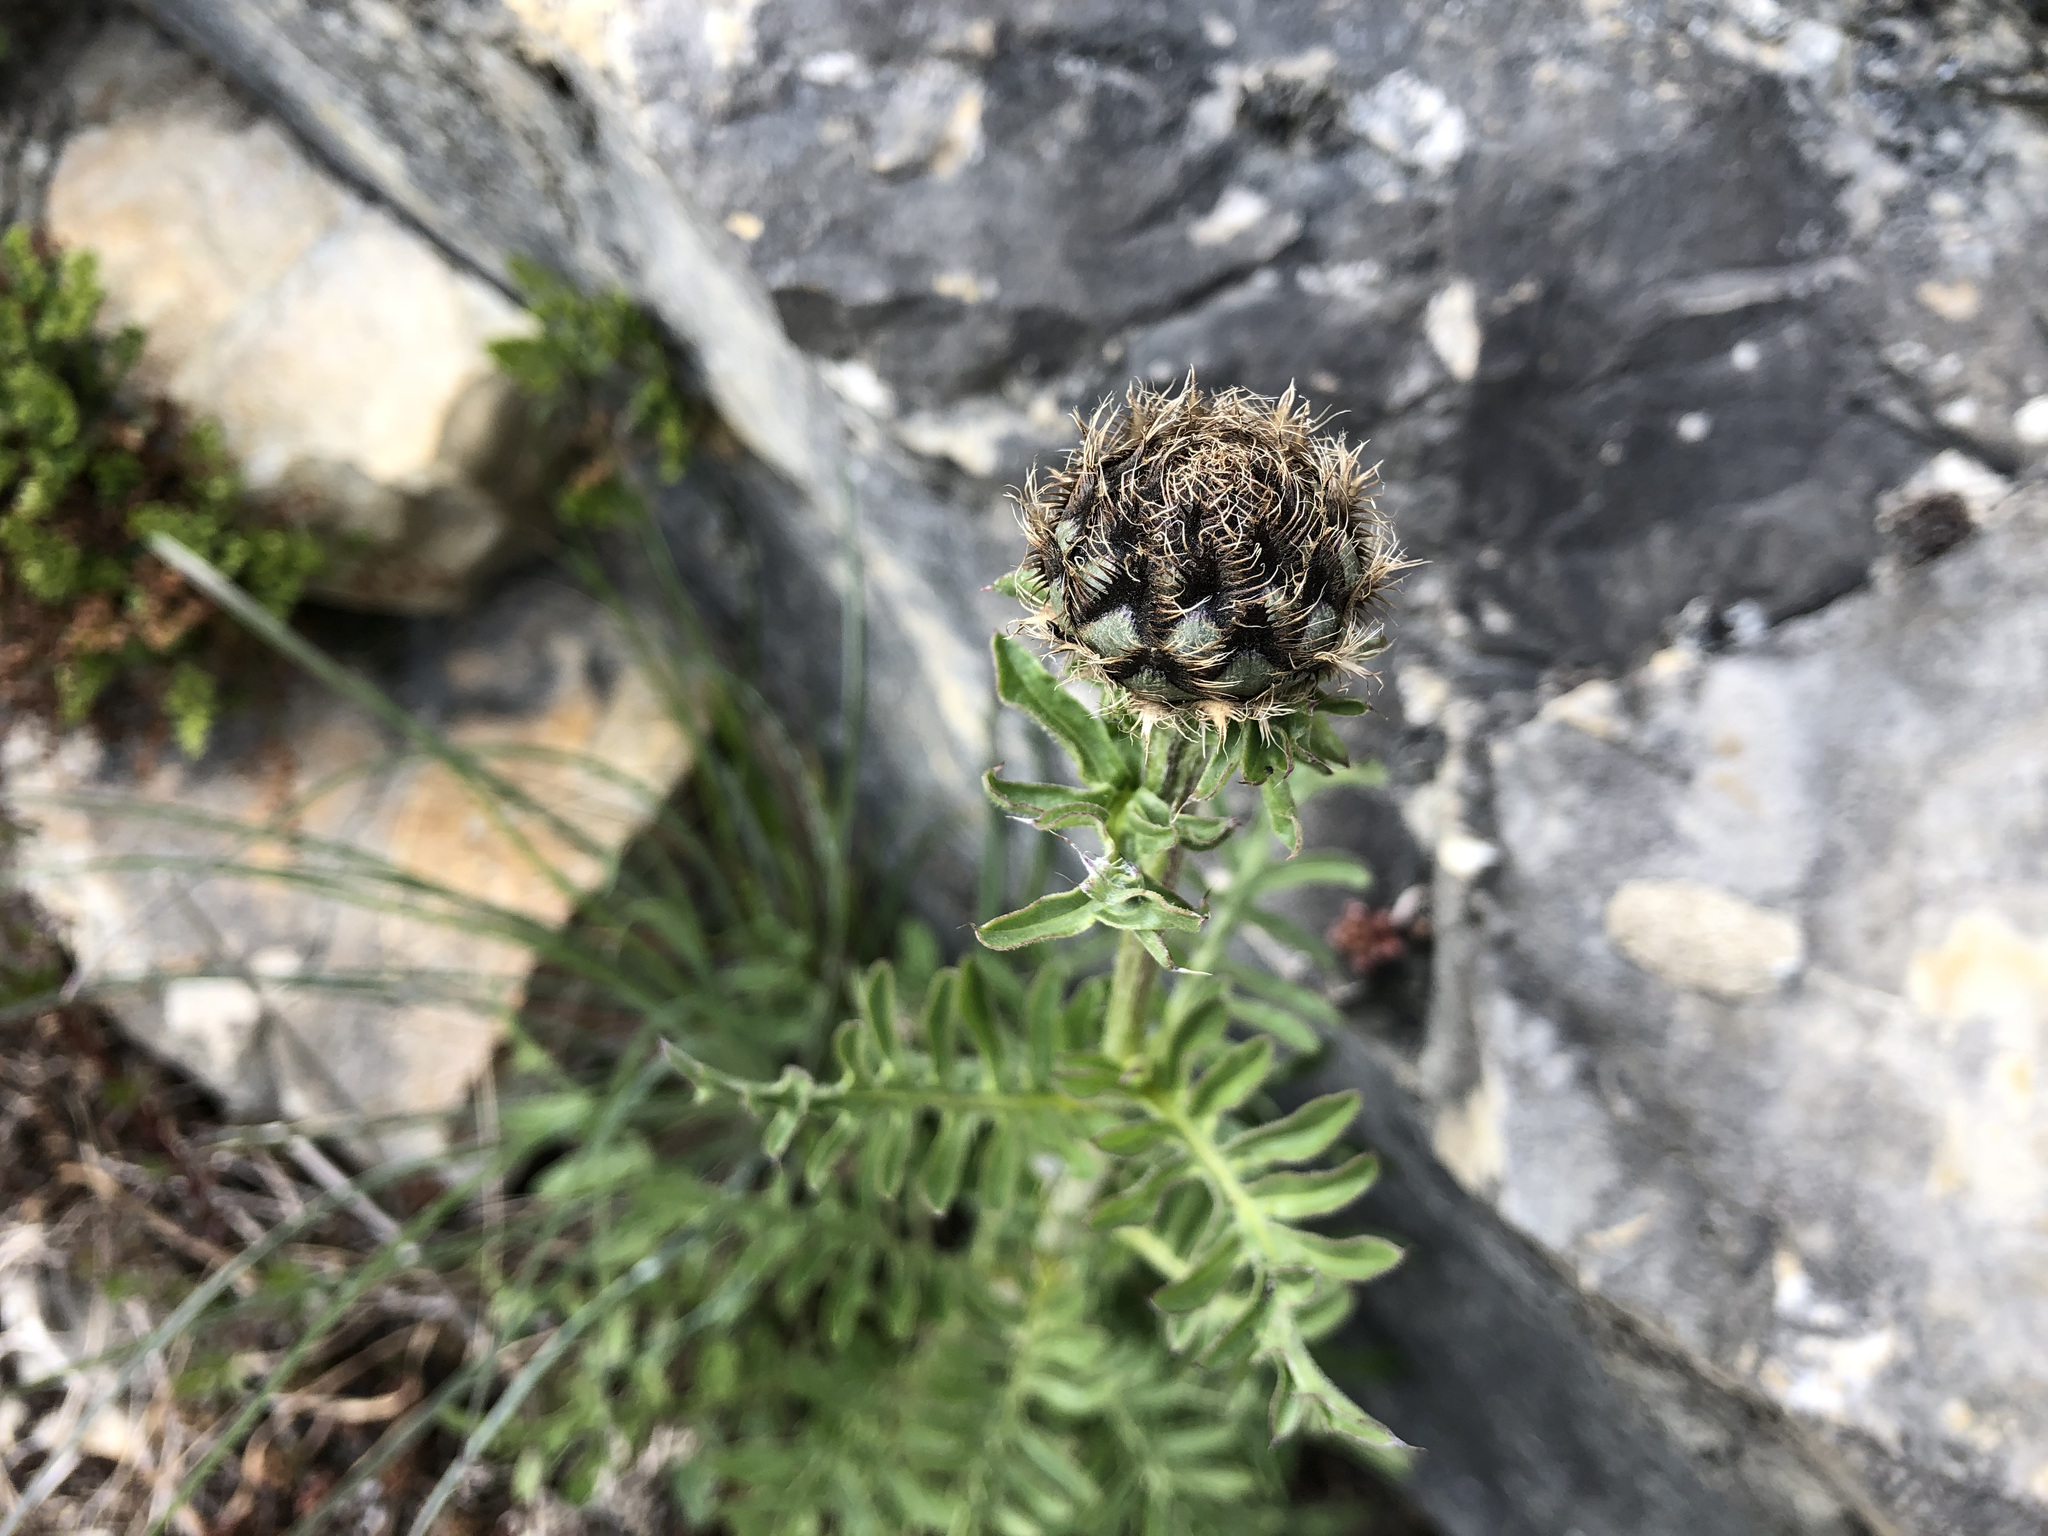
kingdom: Plantae
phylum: Tracheophyta
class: Magnoliopsida
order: Asterales
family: Asteraceae
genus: Centaurea
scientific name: Centaurea scabiosa
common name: Greater knapweed
